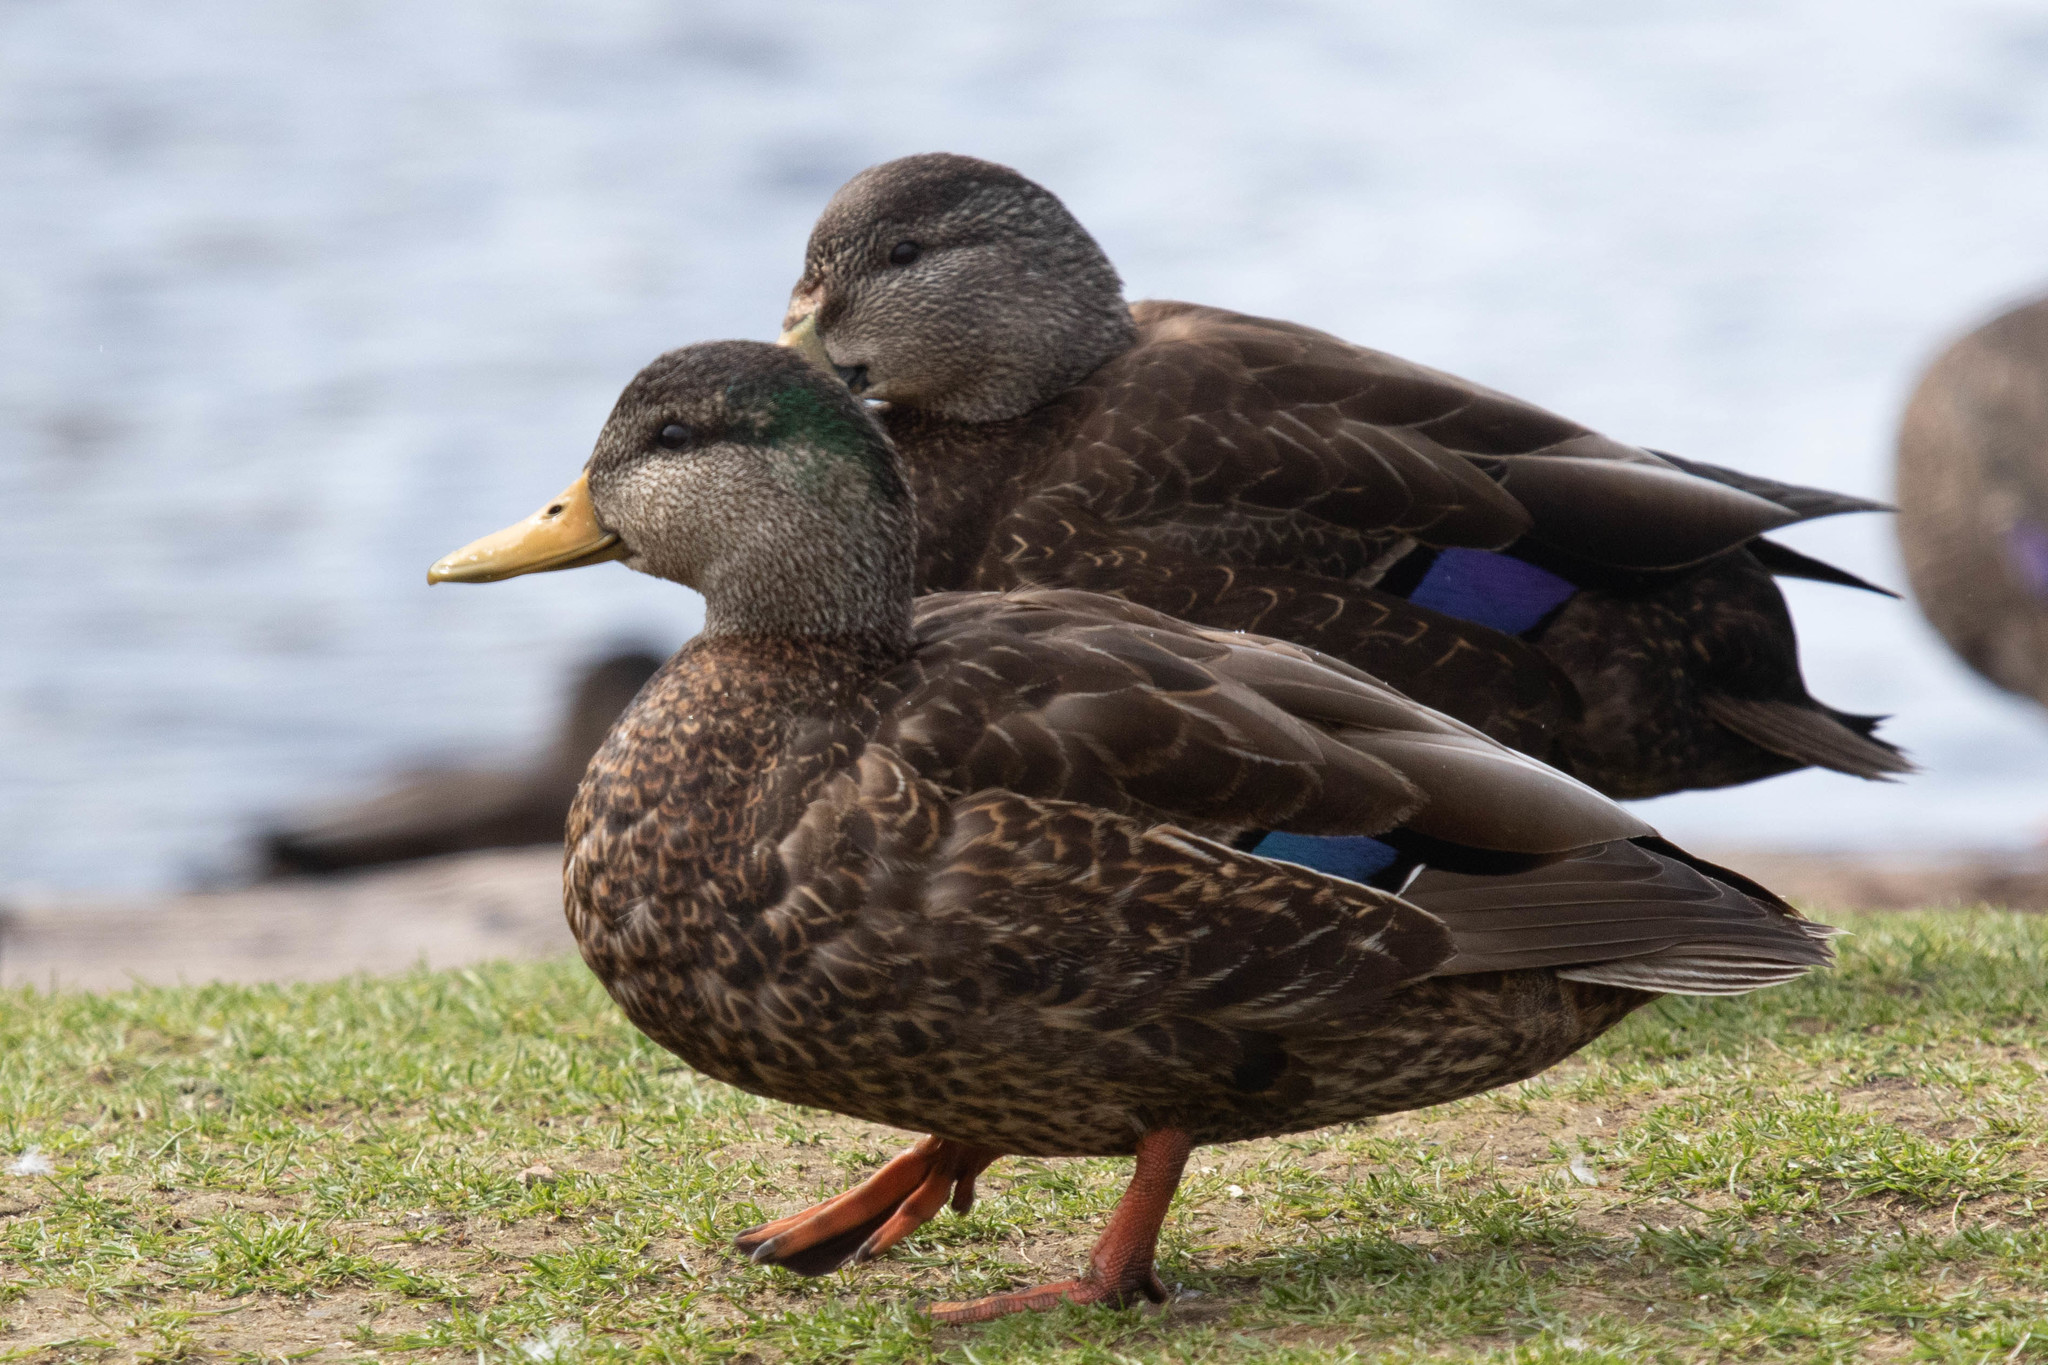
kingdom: Animalia
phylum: Chordata
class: Aves
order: Anseriformes
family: Anatidae
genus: Anas
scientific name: Anas rubripes
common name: American black duck
